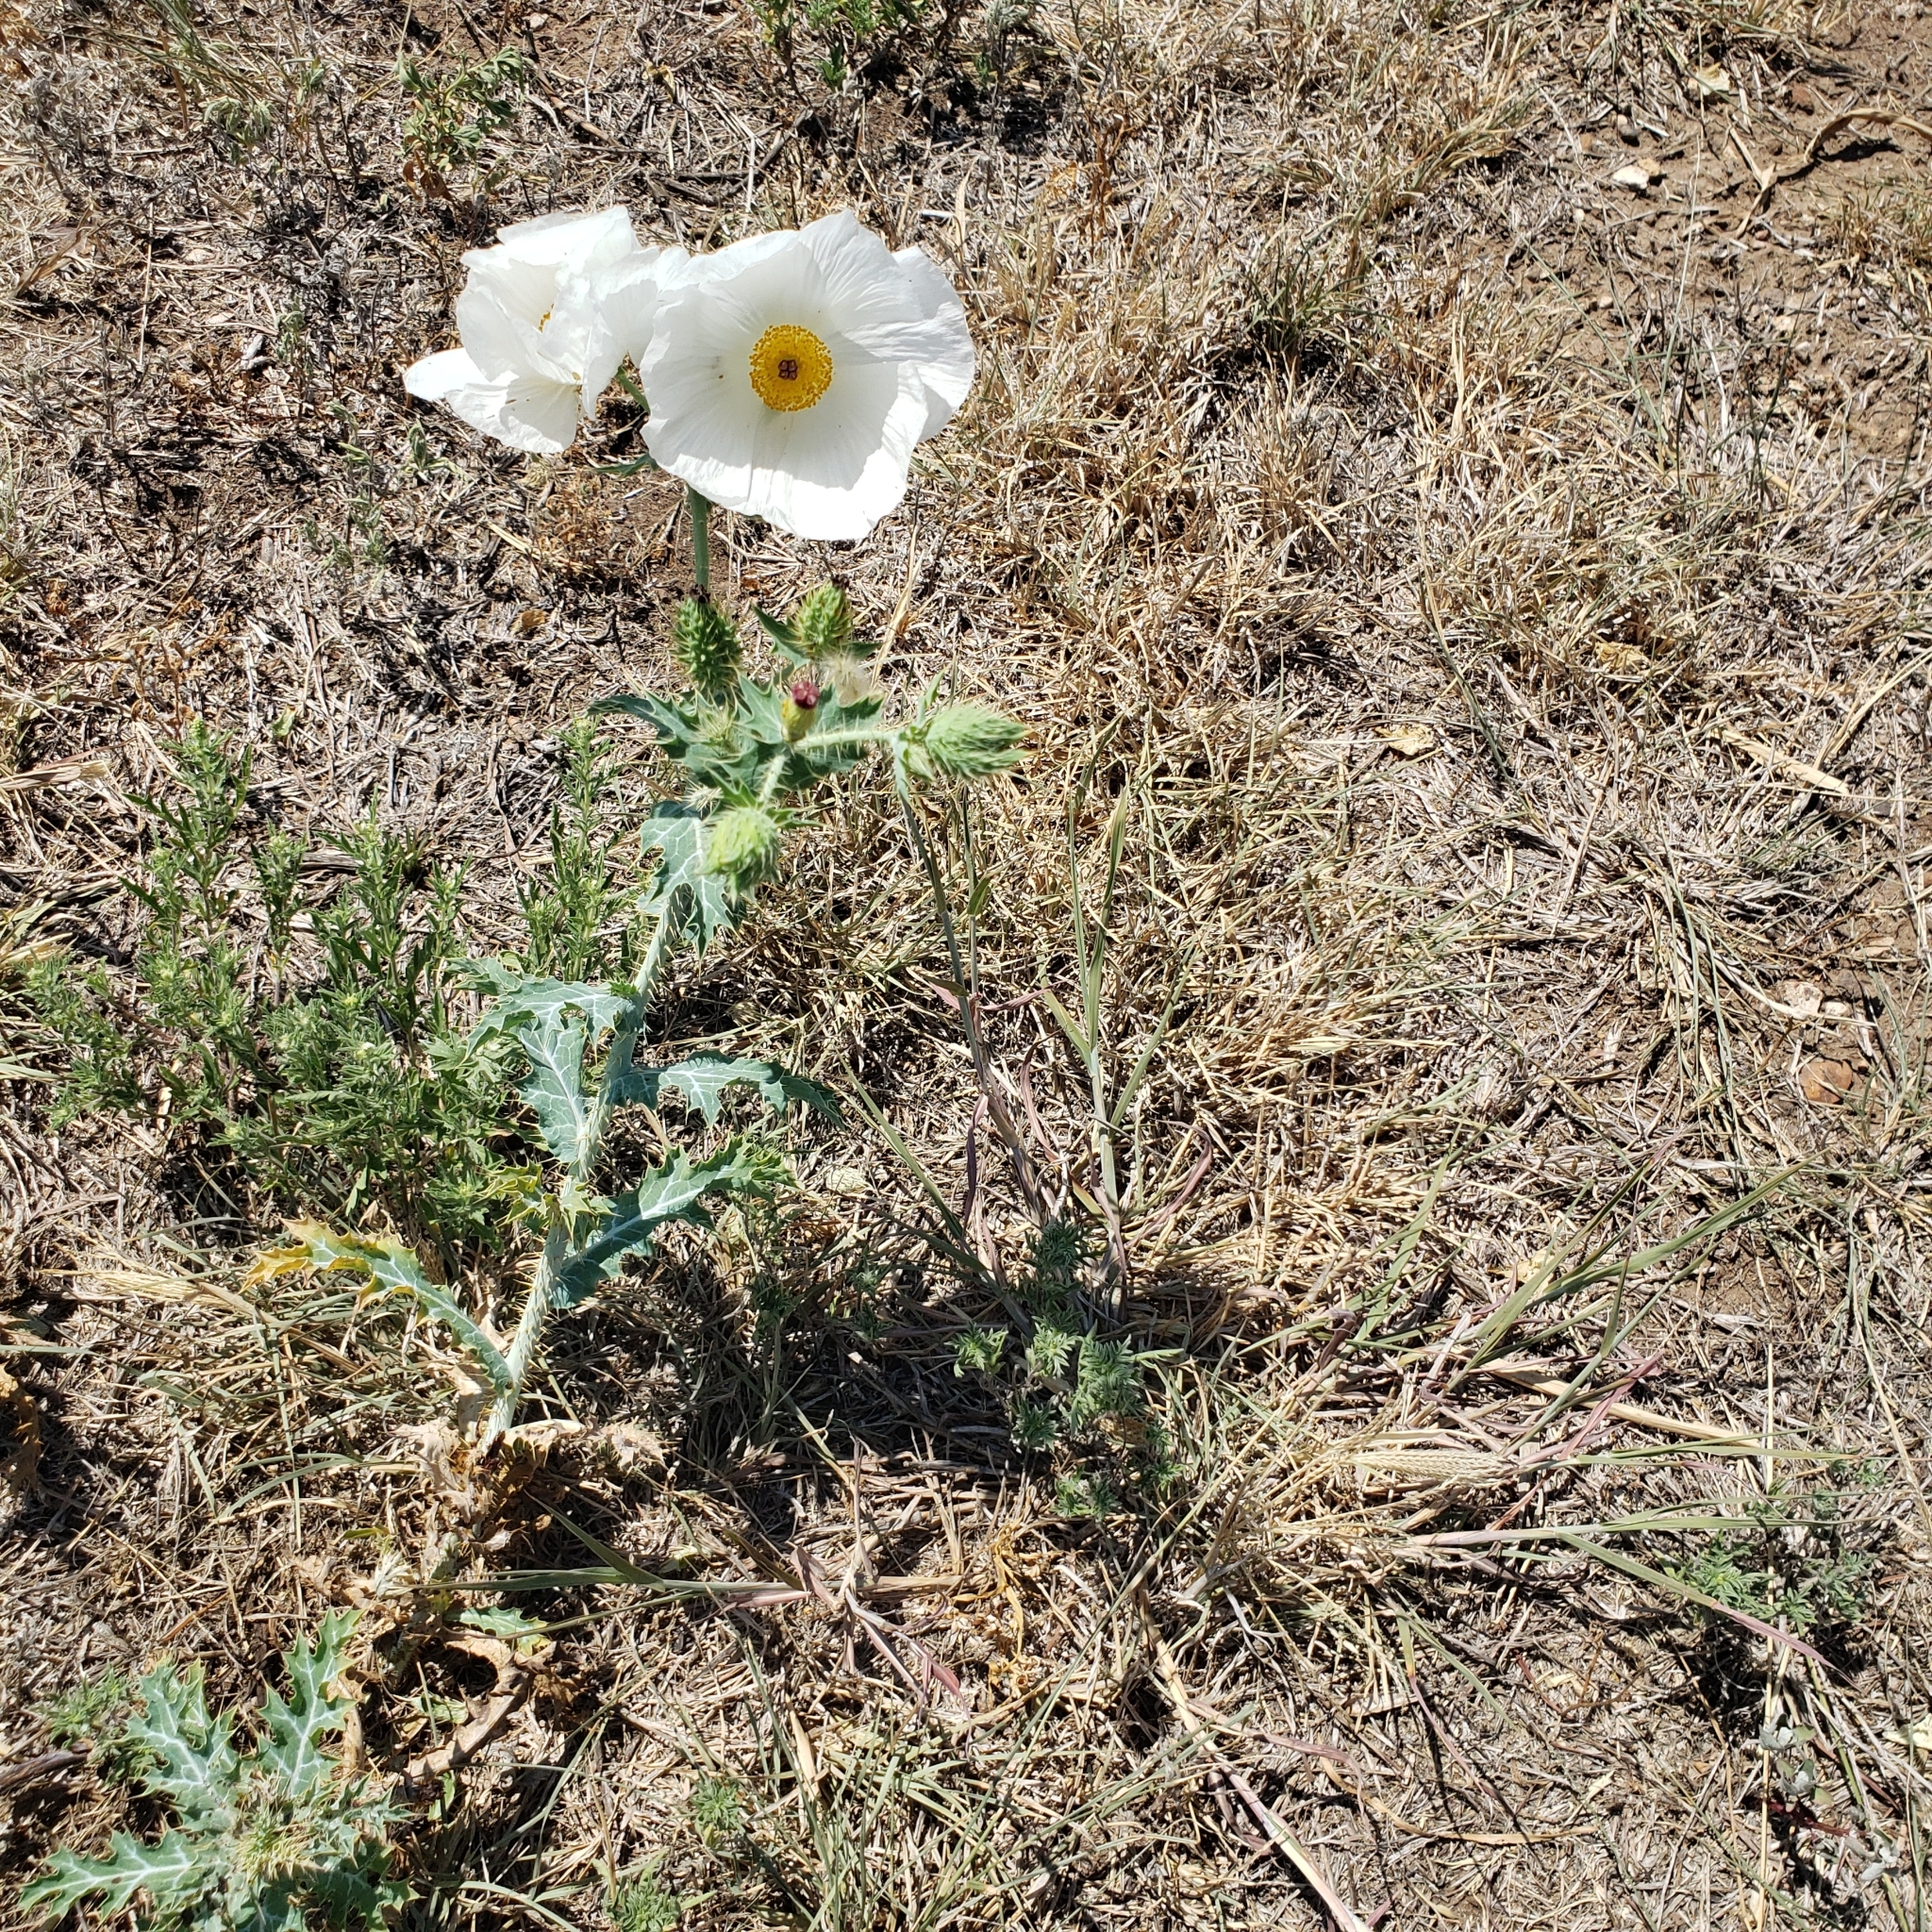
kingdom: Plantae
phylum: Tracheophyta
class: Magnoliopsida
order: Ranunculales
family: Papaveraceae
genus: Argemone
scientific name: Argemone polyanthemos
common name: Plains prickly-poppy
